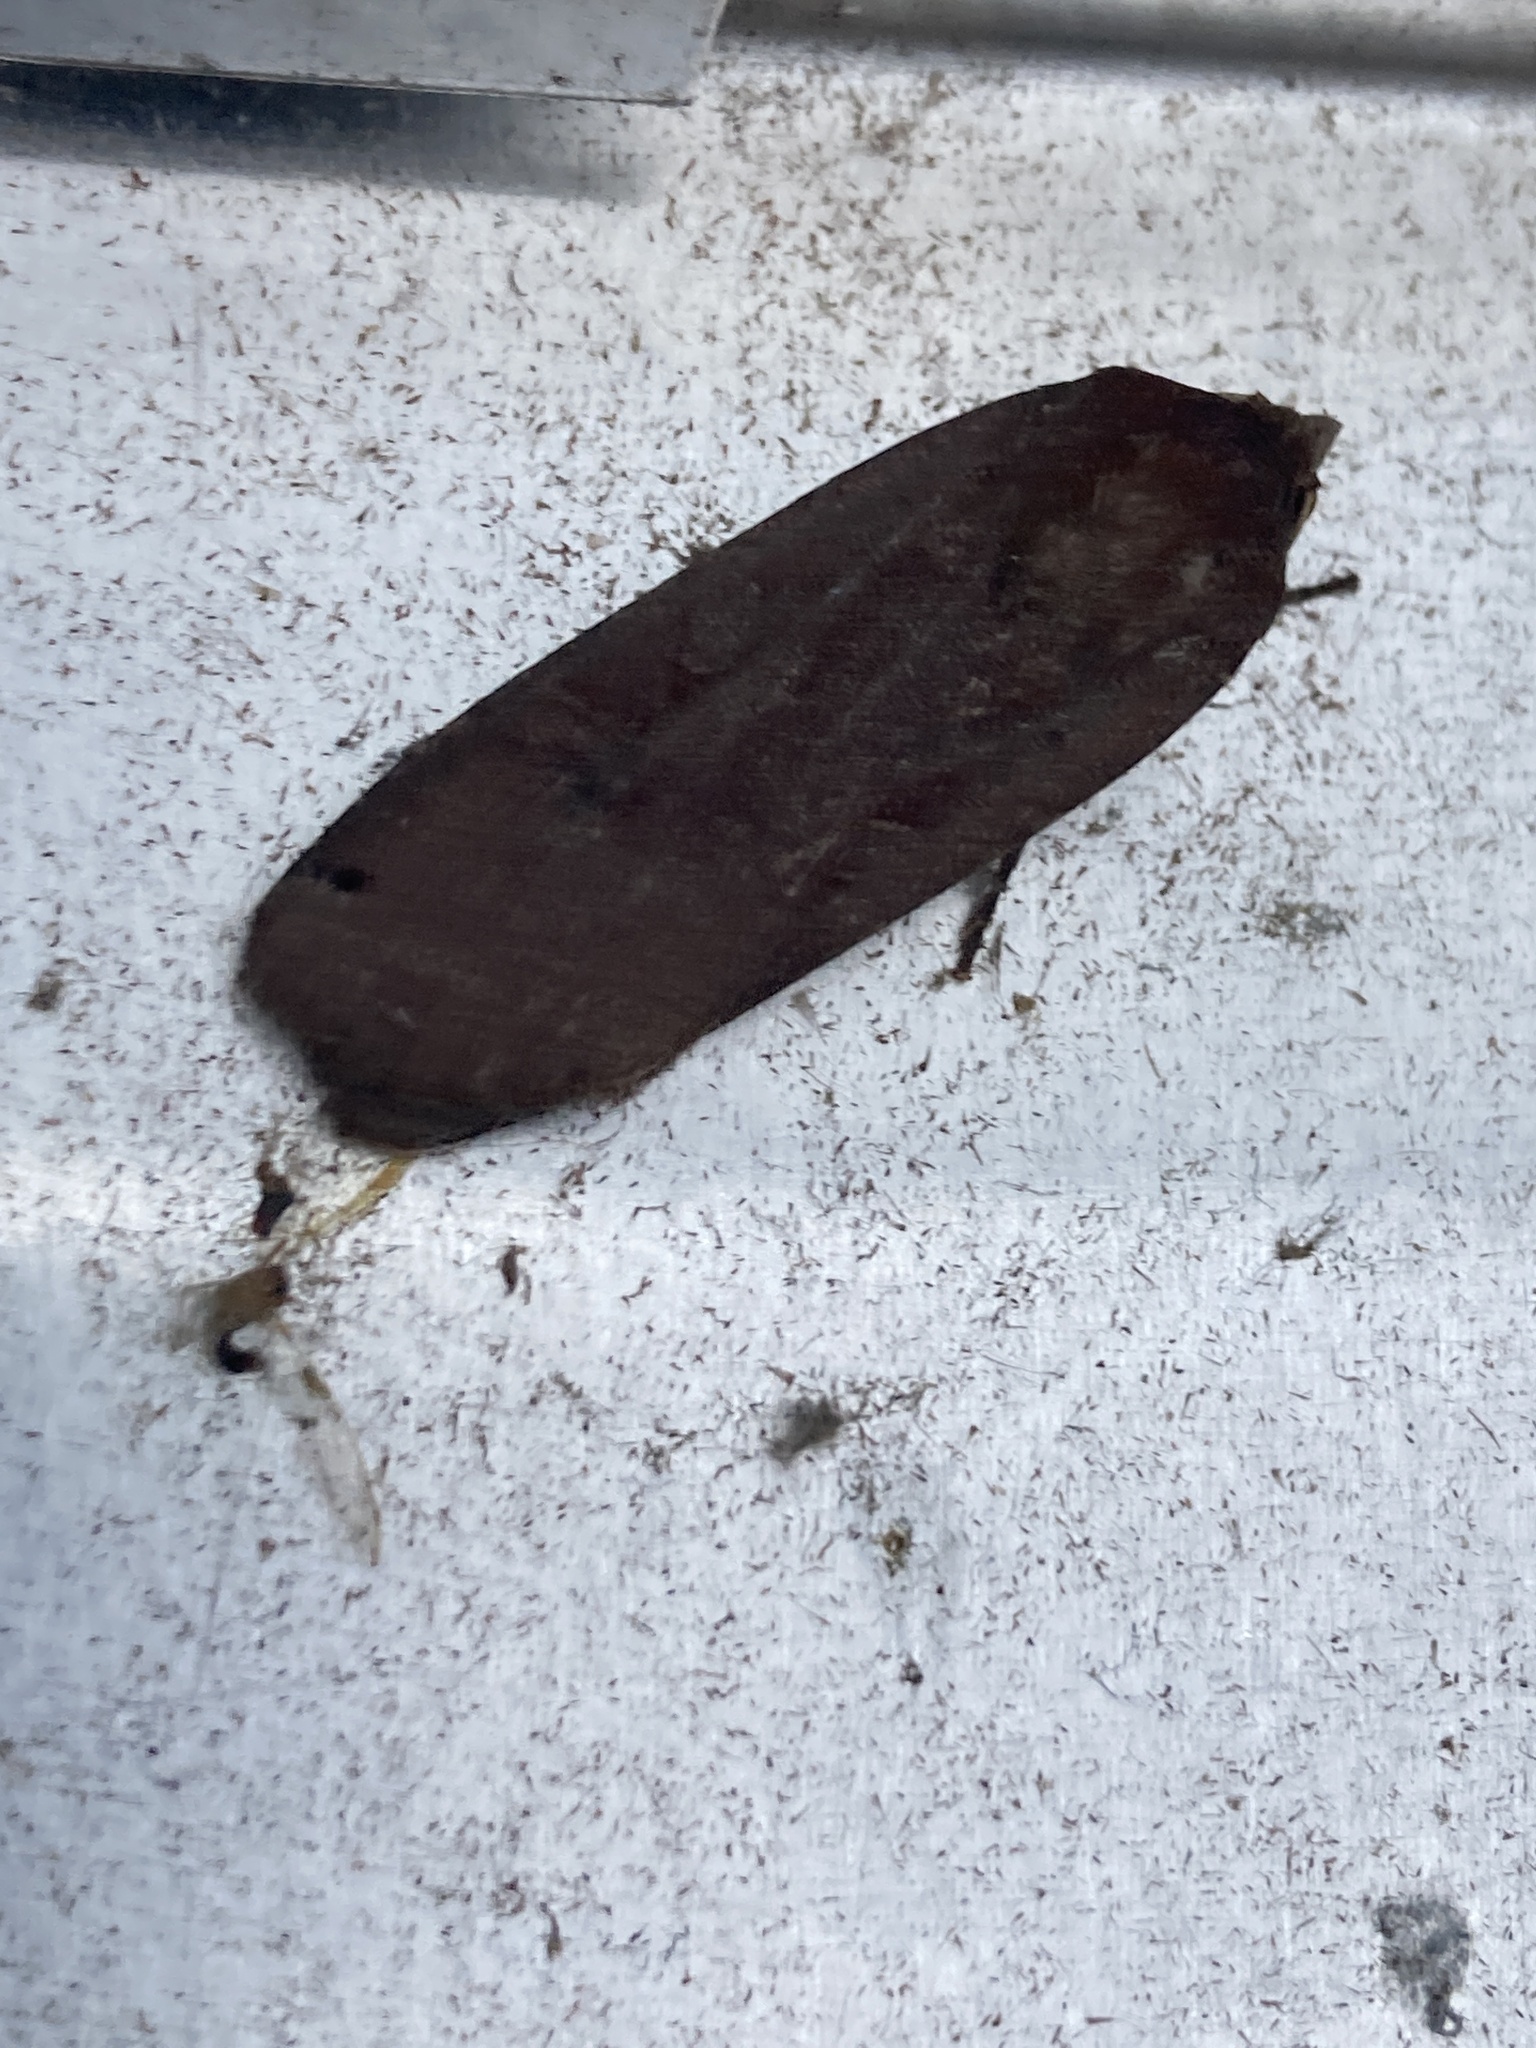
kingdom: Animalia
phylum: Arthropoda
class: Insecta
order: Lepidoptera
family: Noctuidae
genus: Noctua
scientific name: Noctua pronuba
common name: Large yellow underwing
